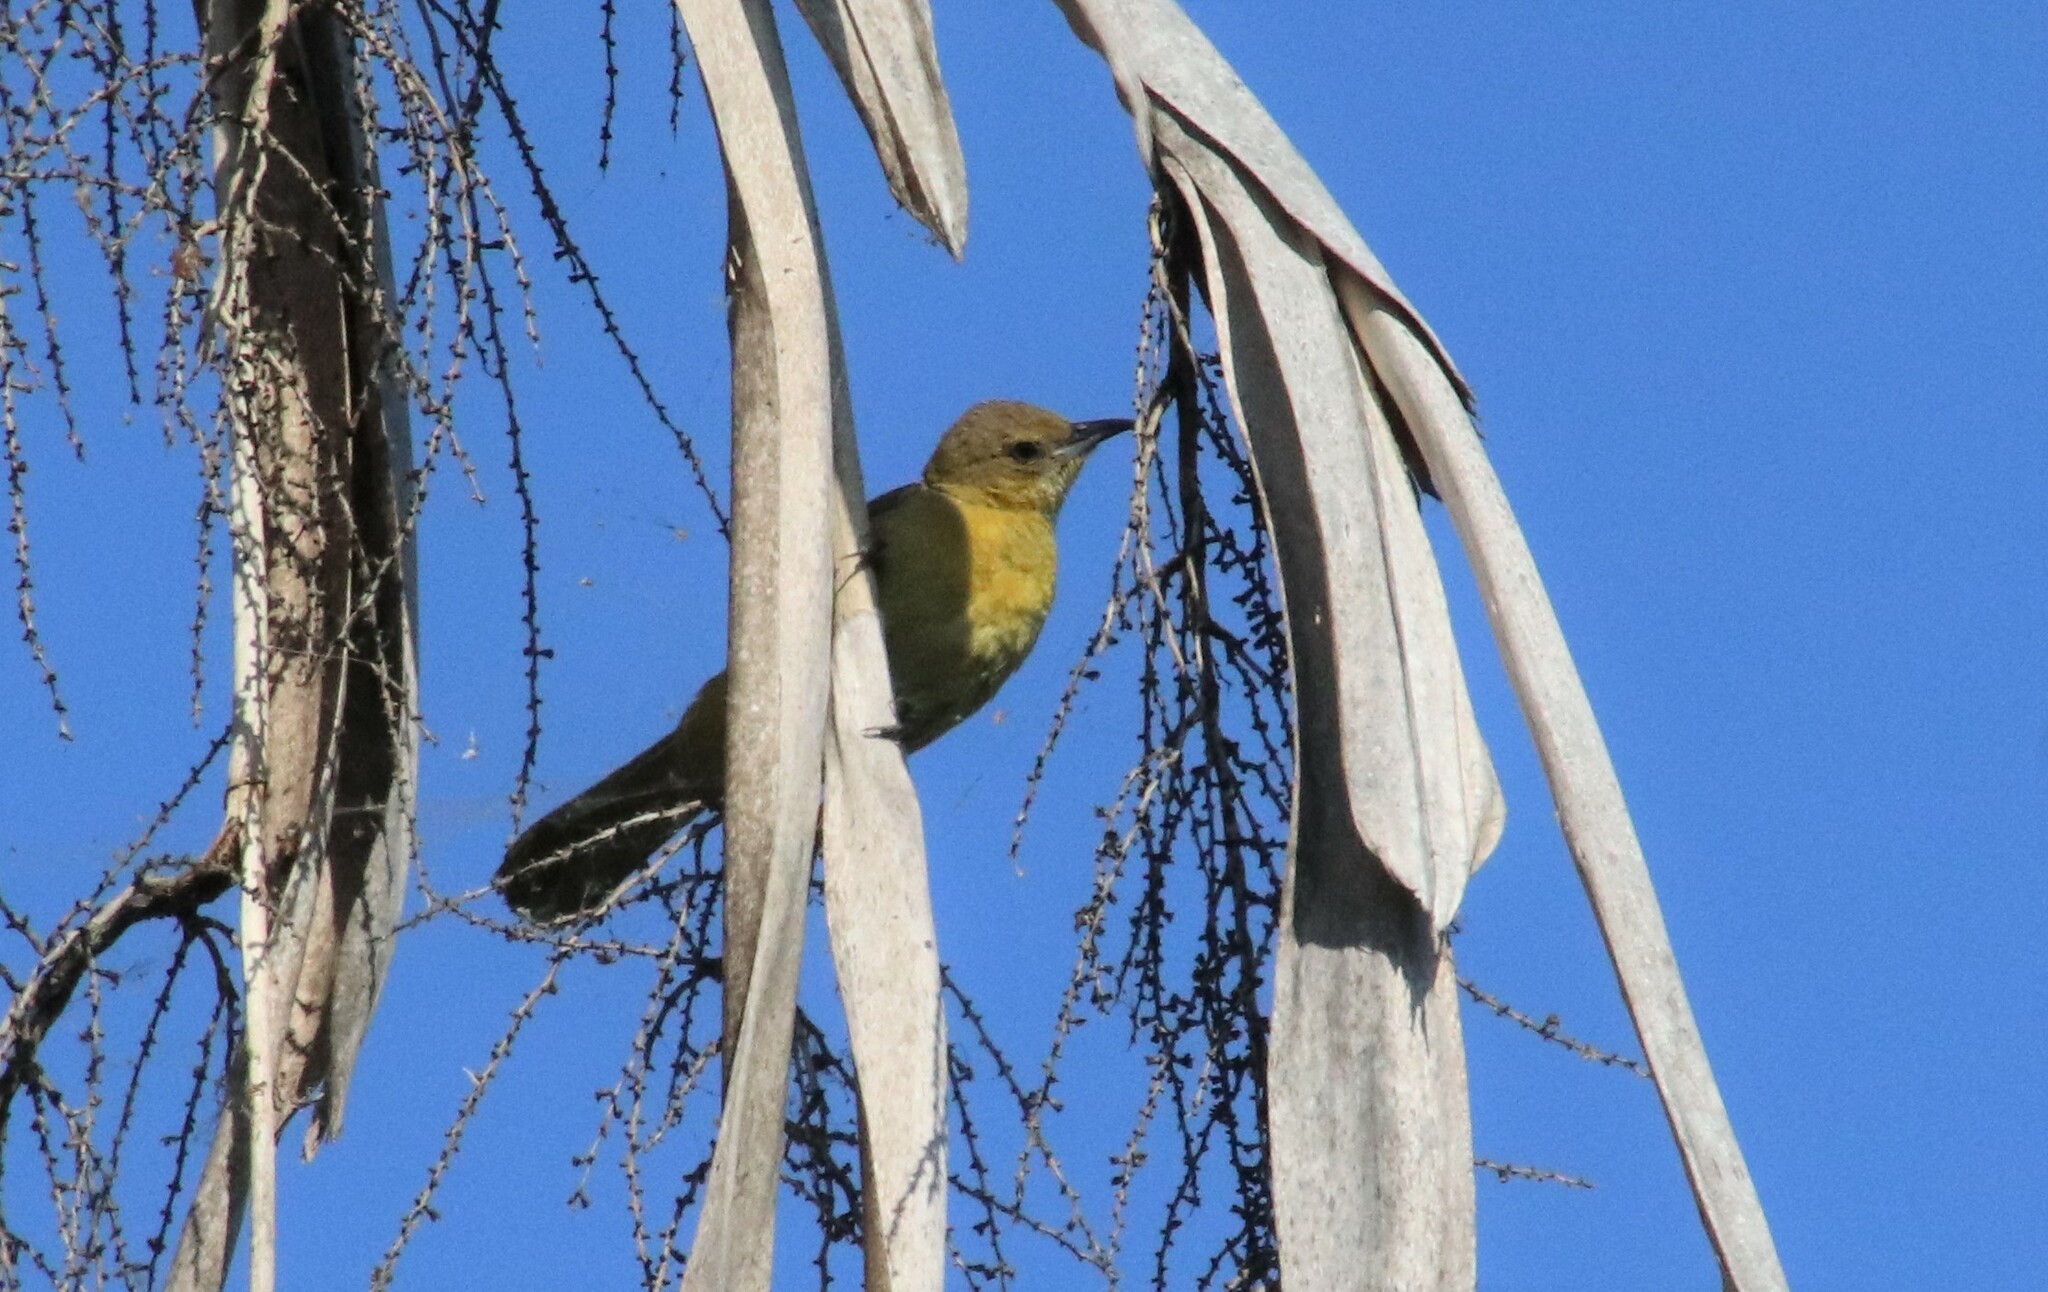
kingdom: Animalia
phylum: Chordata
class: Aves
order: Passeriformes
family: Icteridae
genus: Icterus
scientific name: Icterus cucullatus
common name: Hooded oriole
